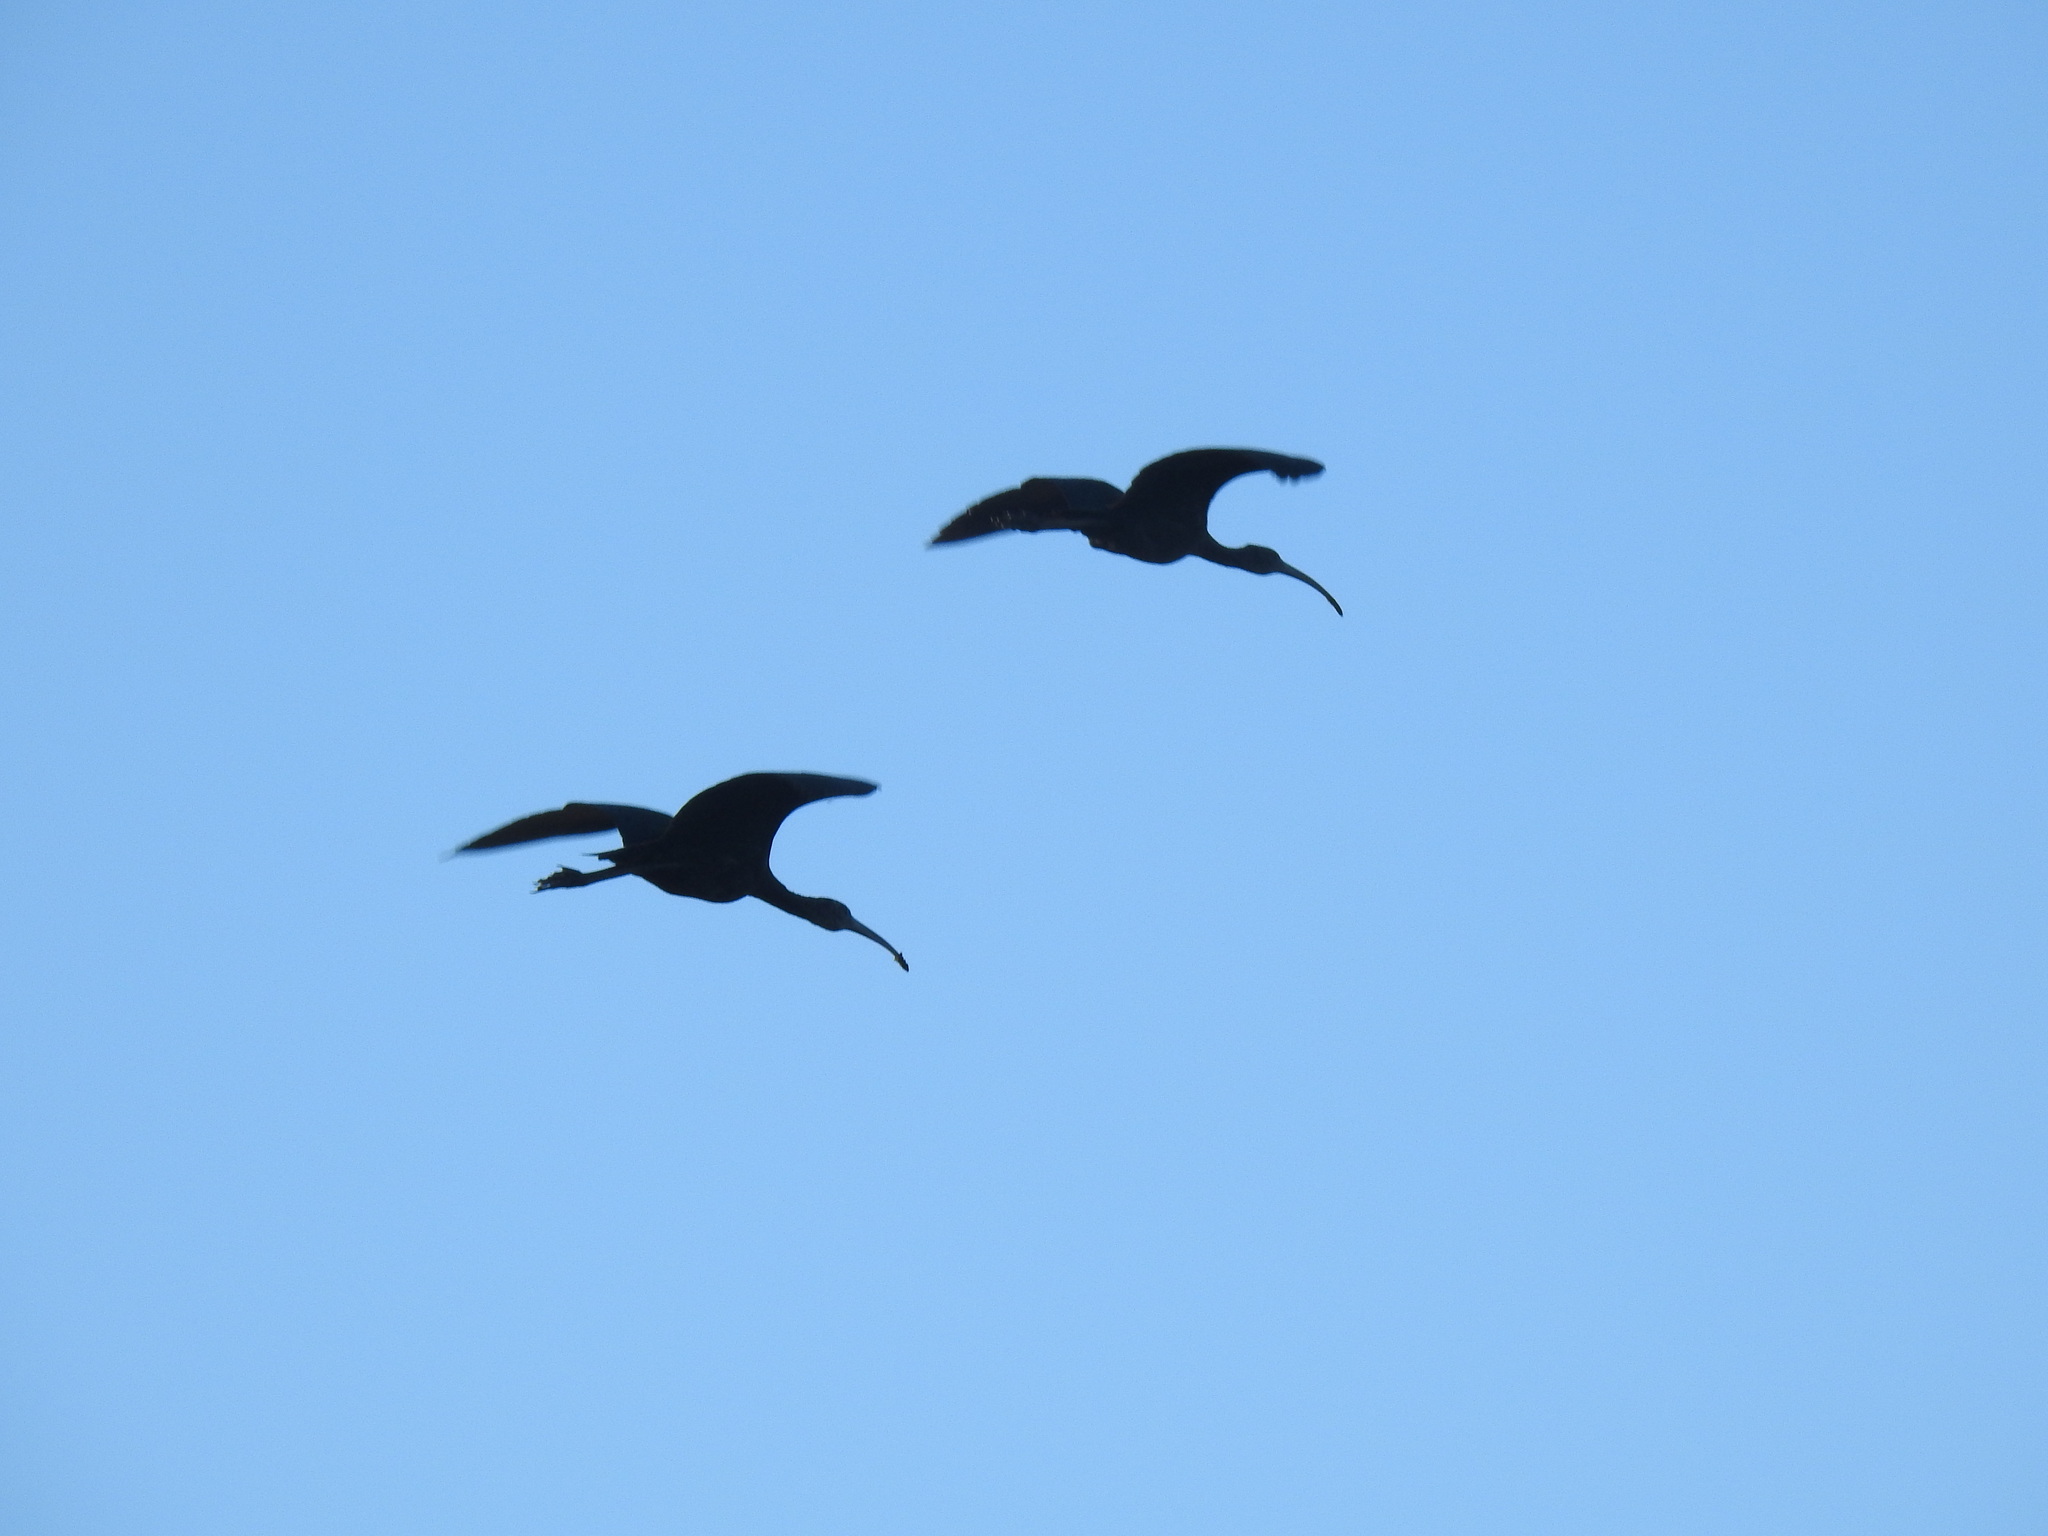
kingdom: Animalia
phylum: Chordata
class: Aves
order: Pelecaniformes
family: Threskiornithidae
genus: Plegadis
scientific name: Plegadis falcinellus
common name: Glossy ibis
